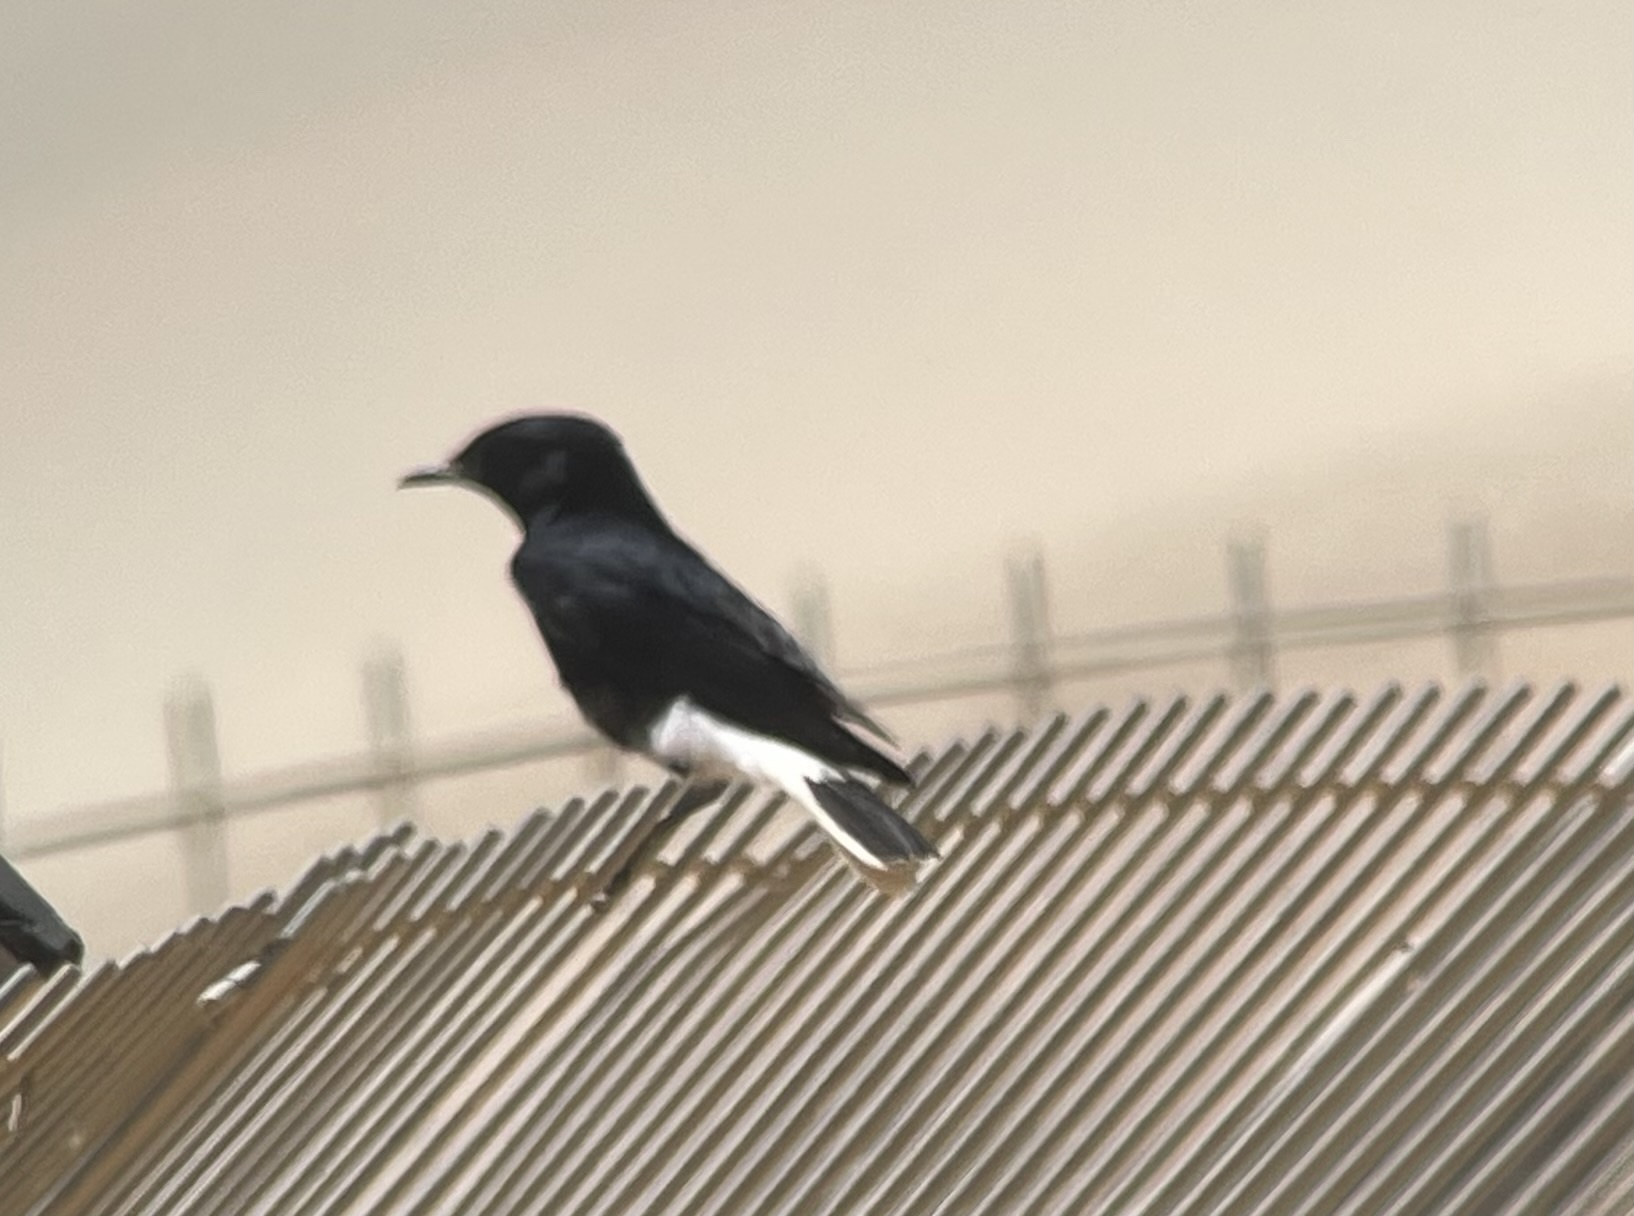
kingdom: Animalia
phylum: Chordata
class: Aves
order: Passeriformes
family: Muscicapidae
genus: Oenanthe
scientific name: Oenanthe leucopyga
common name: White-crowned wheatear
